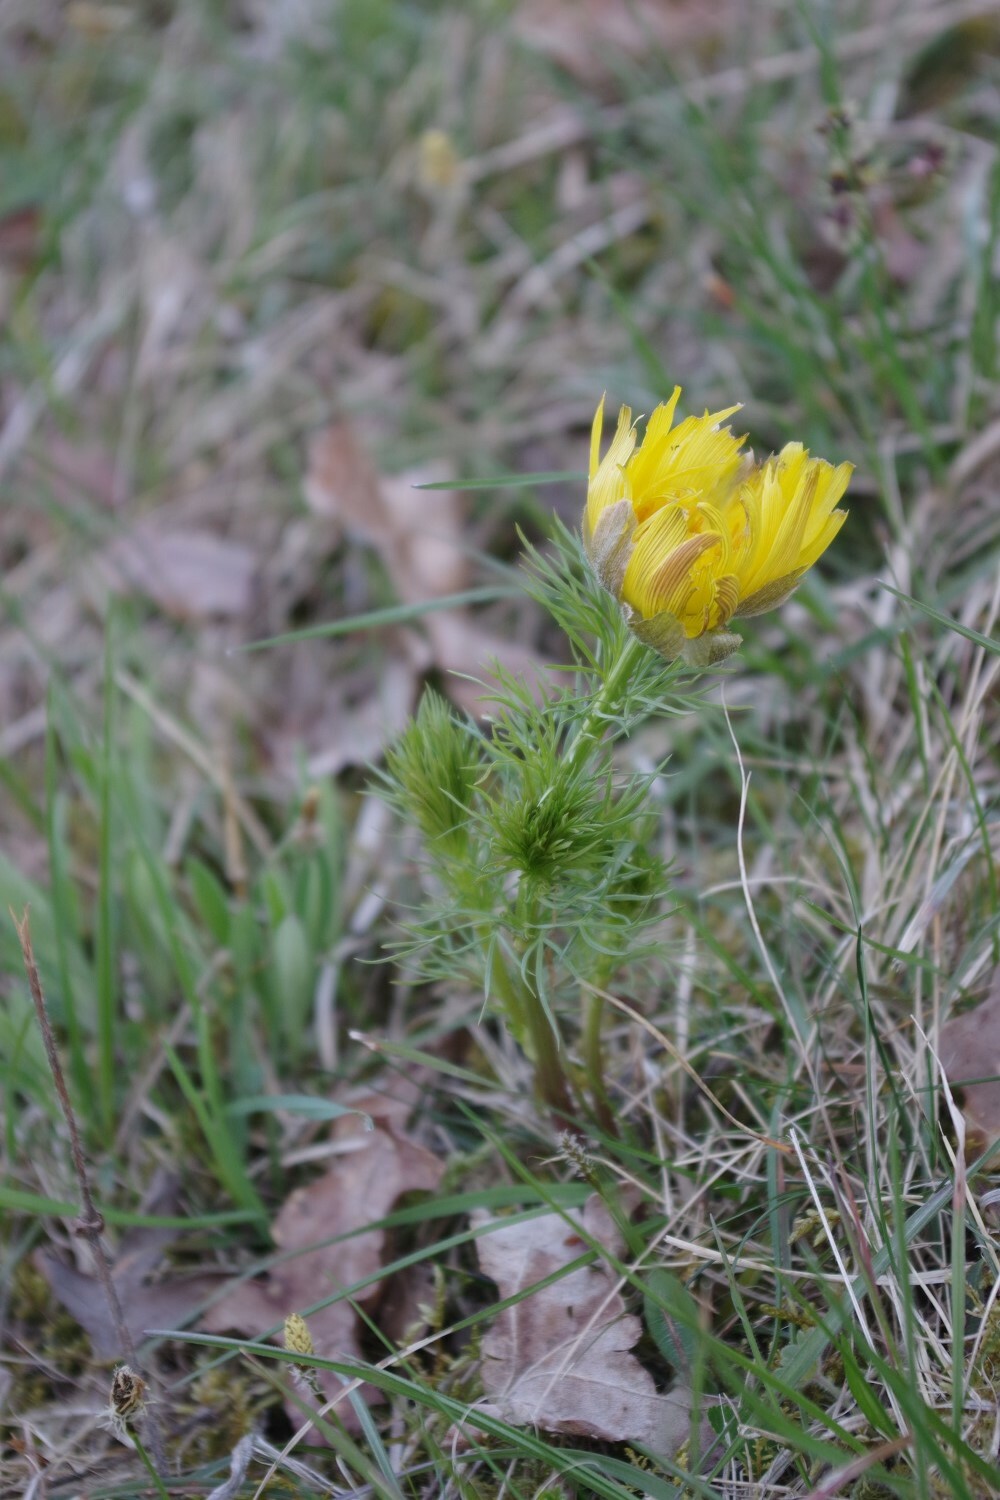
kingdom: Plantae
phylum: Tracheophyta
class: Magnoliopsida
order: Ranunculales
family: Ranunculaceae
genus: Adonis
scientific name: Adonis vernalis
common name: Yellow pheasants-eye
